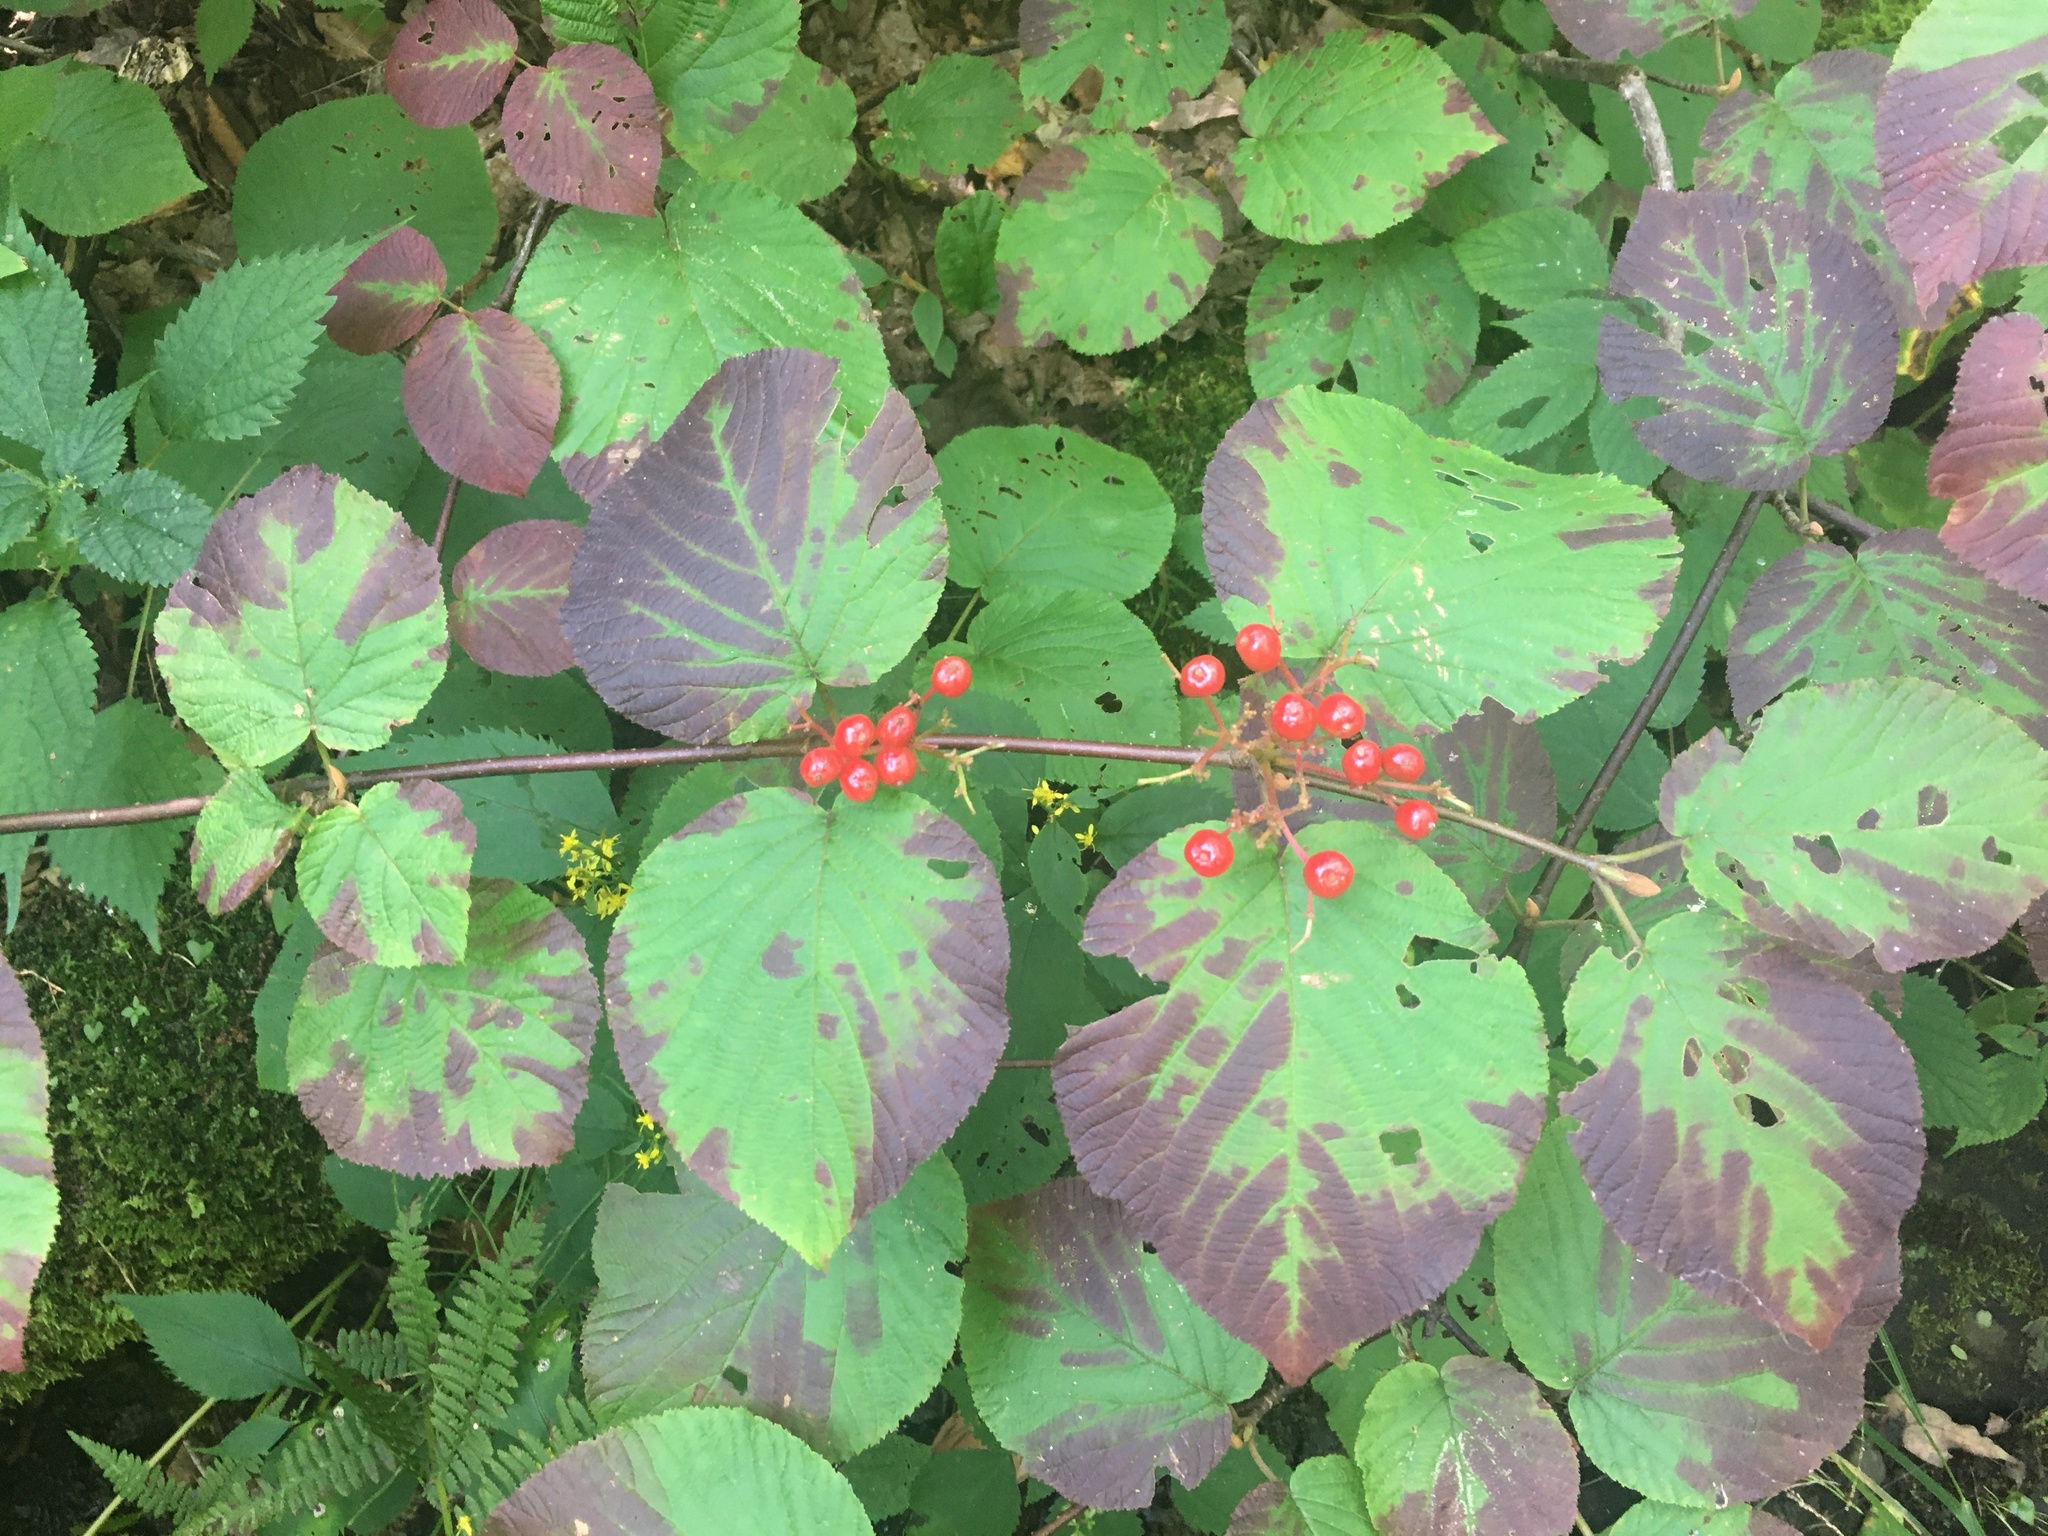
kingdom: Plantae
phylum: Tracheophyta
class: Magnoliopsida
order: Dipsacales
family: Viburnaceae
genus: Viburnum
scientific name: Viburnum lantanoides
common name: Hobblebush
